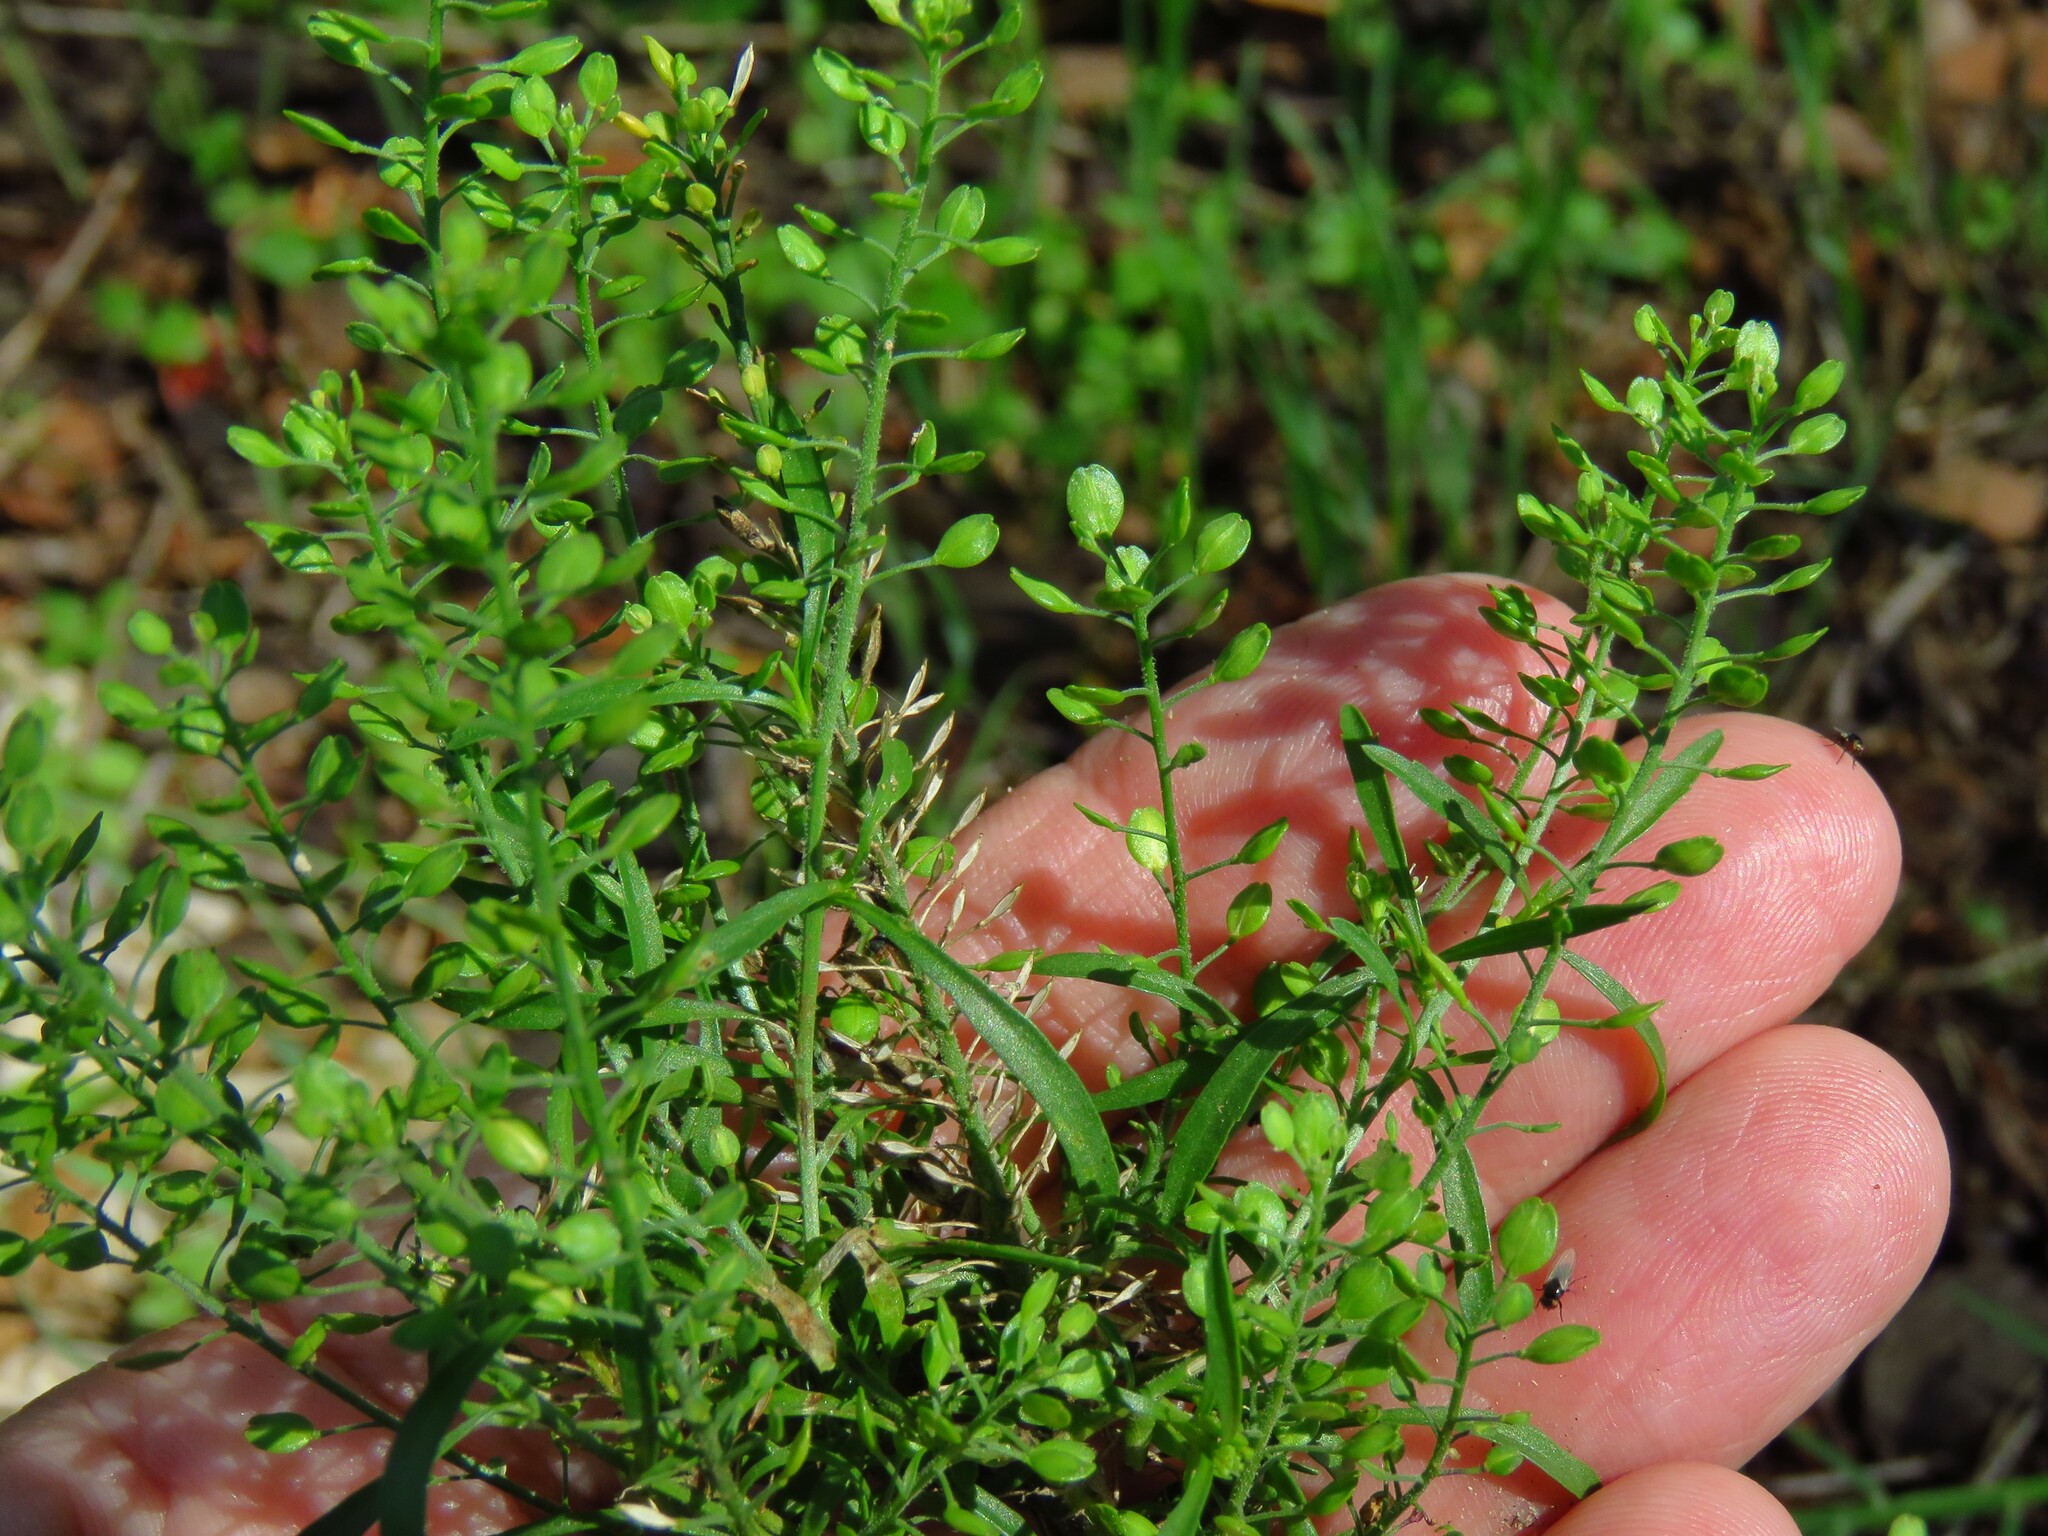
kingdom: Plantae
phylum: Tracheophyta
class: Magnoliopsida
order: Brassicales
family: Brassicaceae
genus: Lepidium
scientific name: Lepidium virginicum
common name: Least pepperwort
